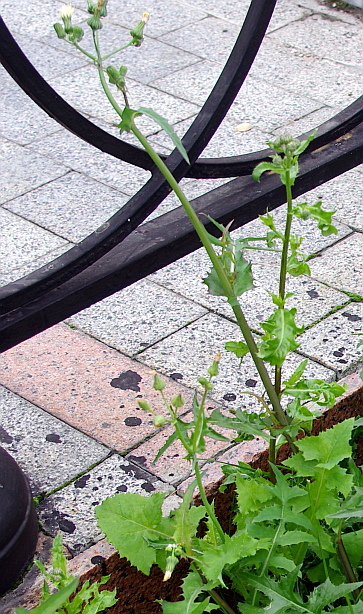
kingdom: Plantae
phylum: Tracheophyta
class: Magnoliopsida
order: Asterales
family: Asteraceae
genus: Sonchus
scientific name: Sonchus oleraceus
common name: Common sowthistle
